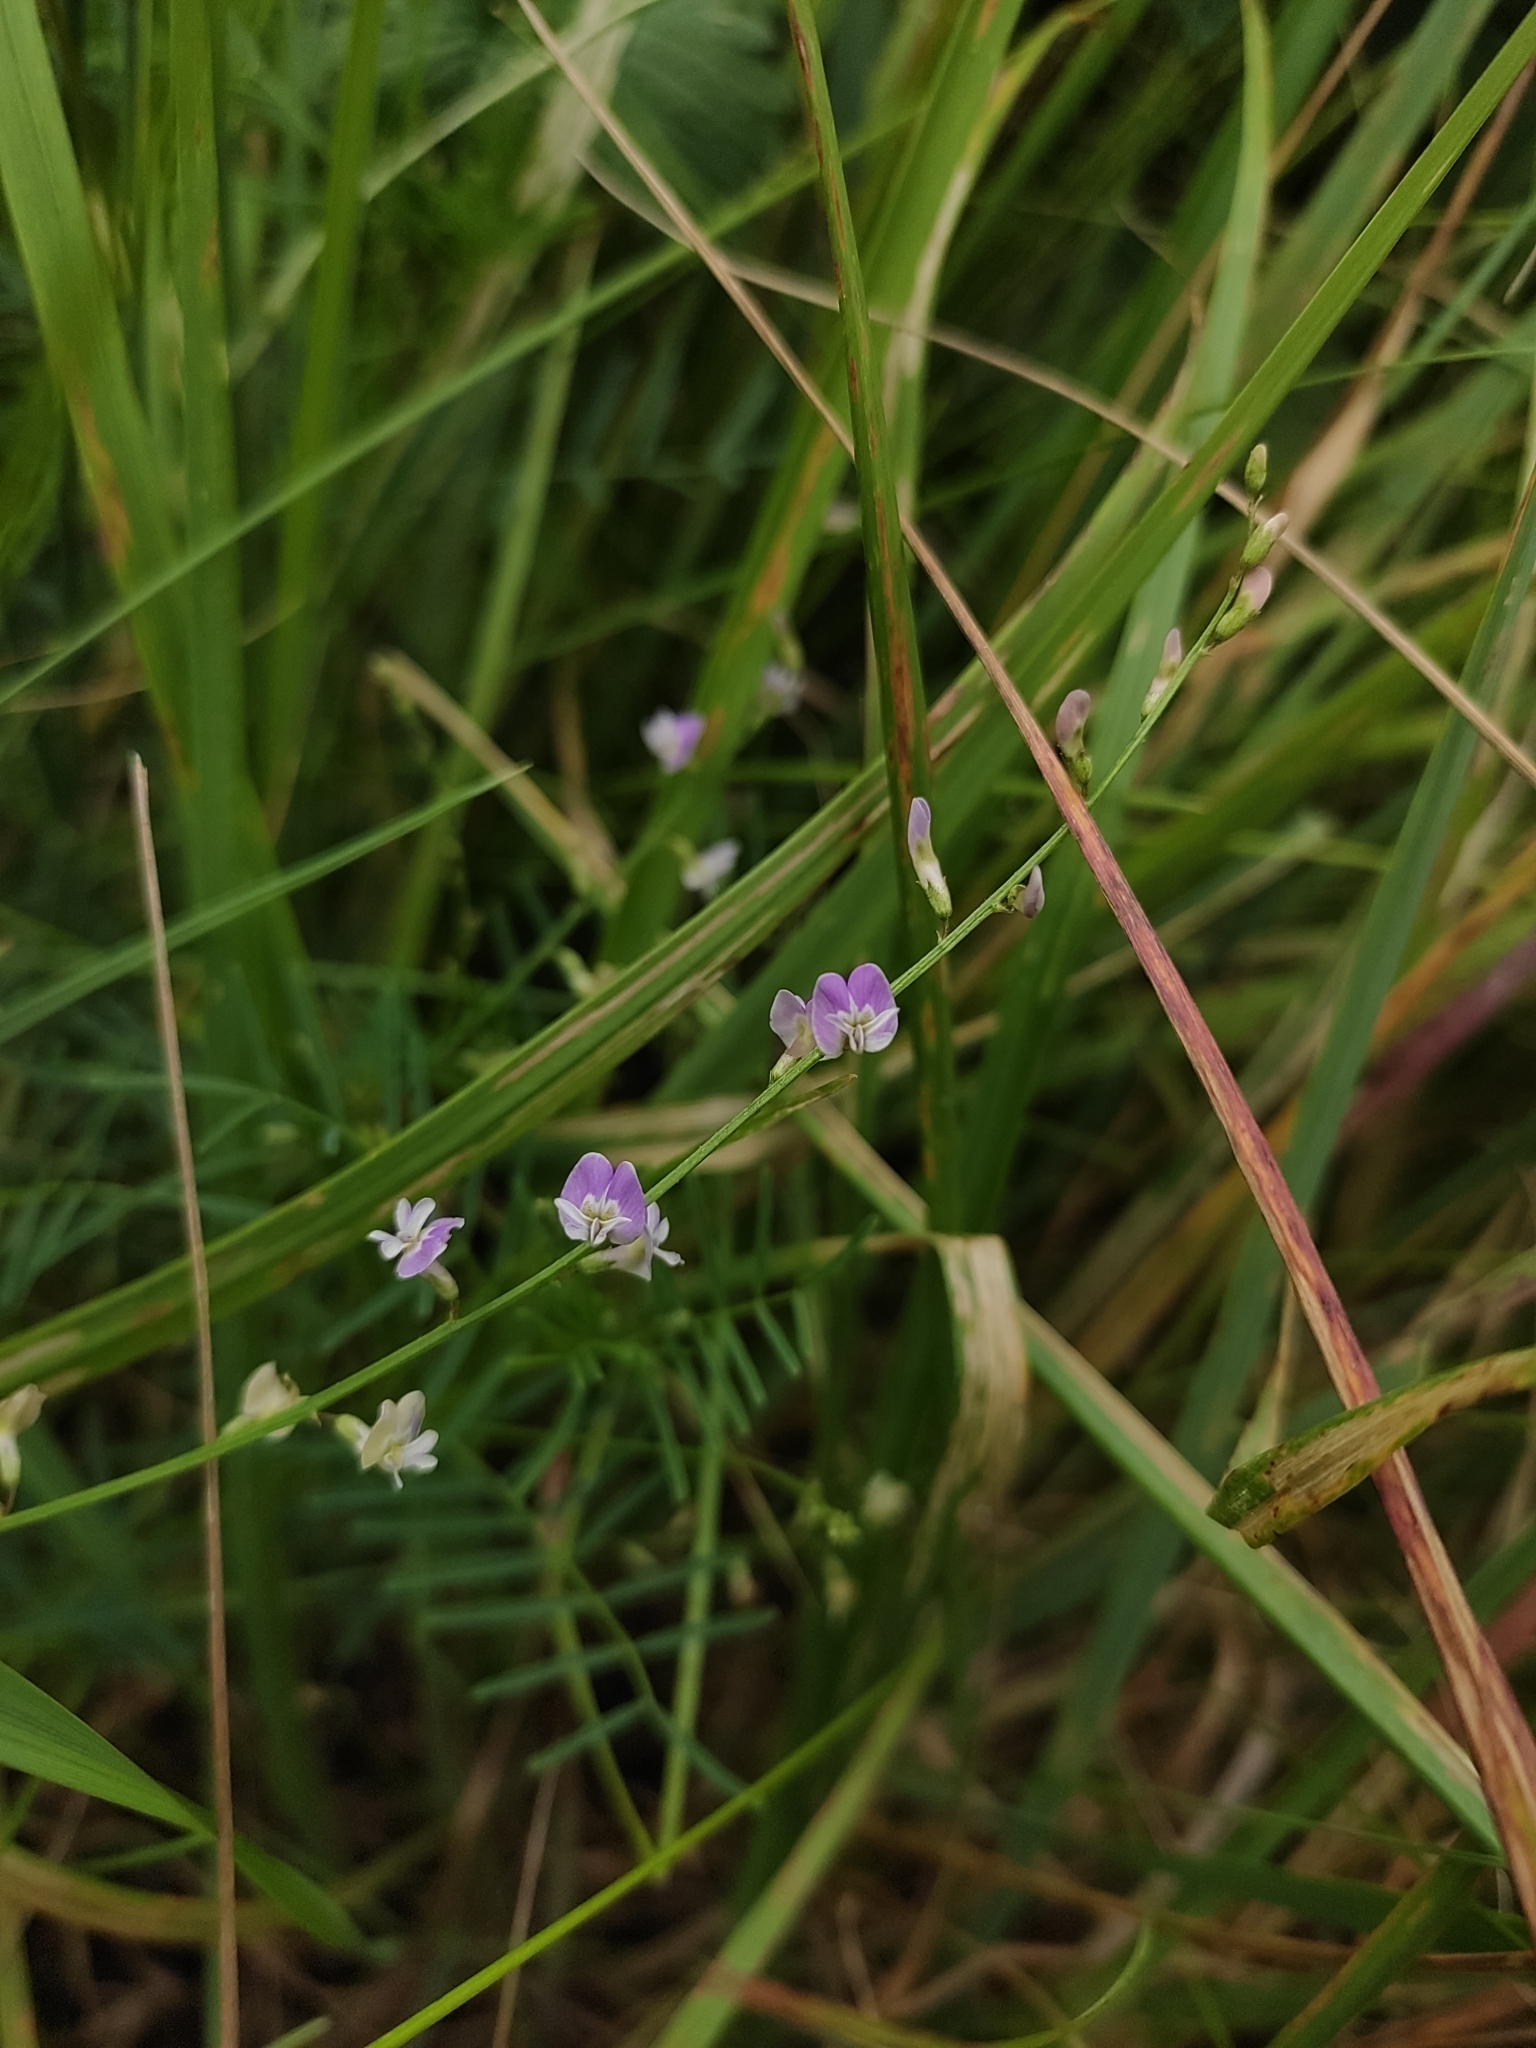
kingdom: Plantae
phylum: Tracheophyta
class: Magnoliopsida
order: Fabales
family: Fabaceae
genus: Astragalus
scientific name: Astragalus austriacus
